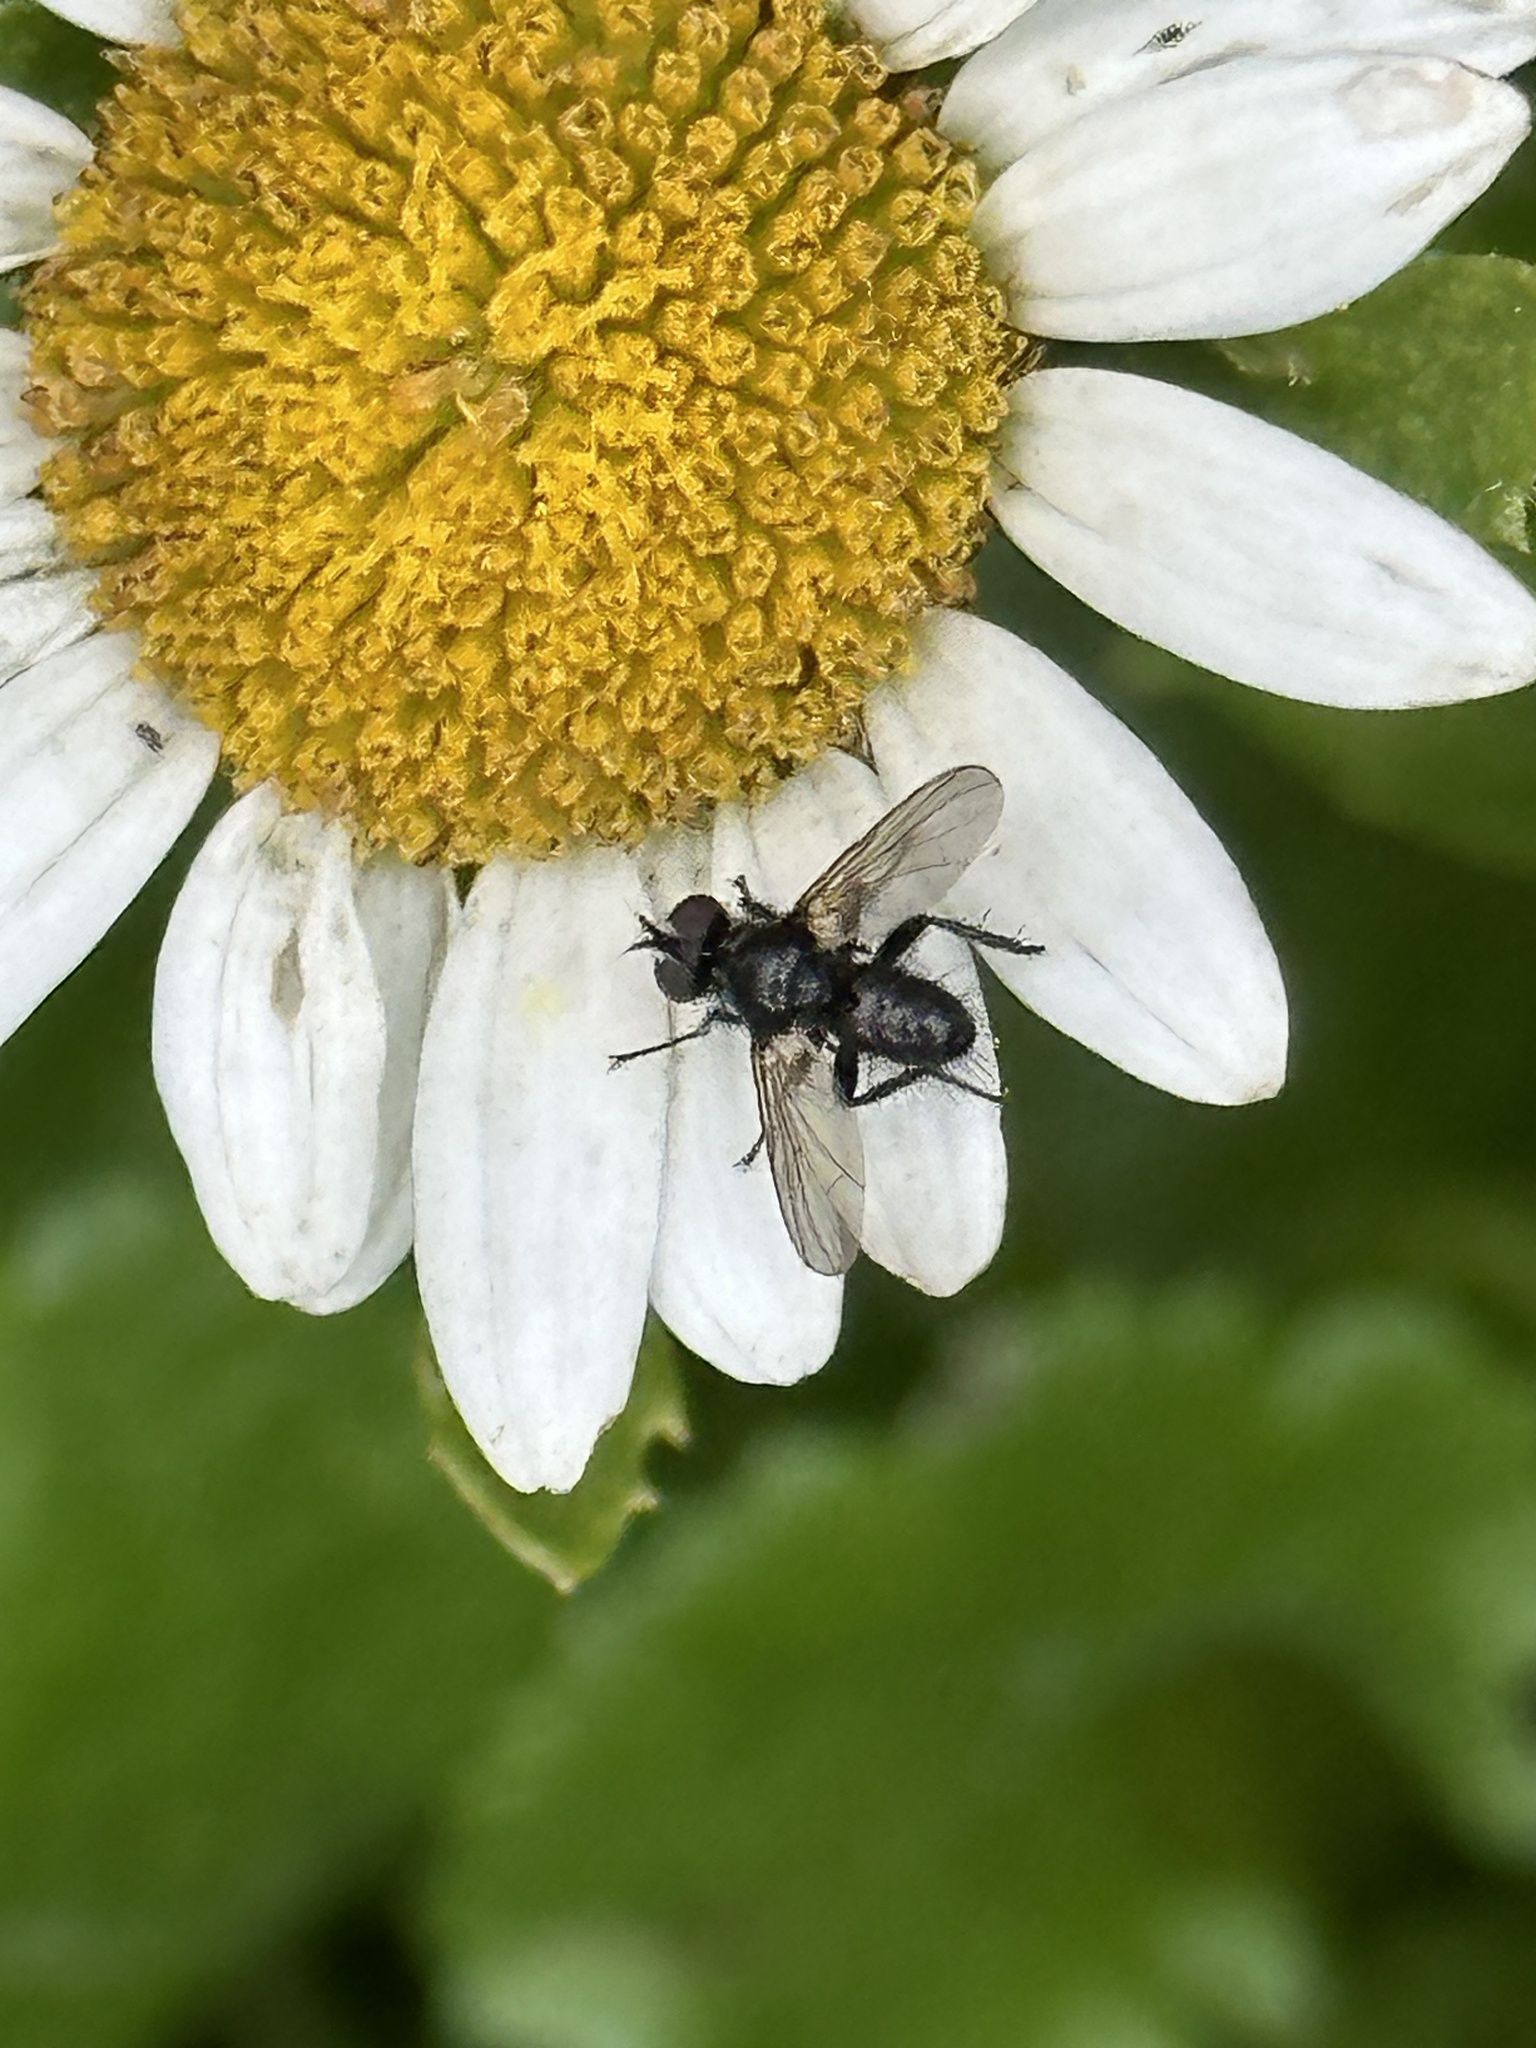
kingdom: Animalia
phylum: Arthropoda
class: Insecta
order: Diptera
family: Tachinidae
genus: Phania
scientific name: Phania funesta
